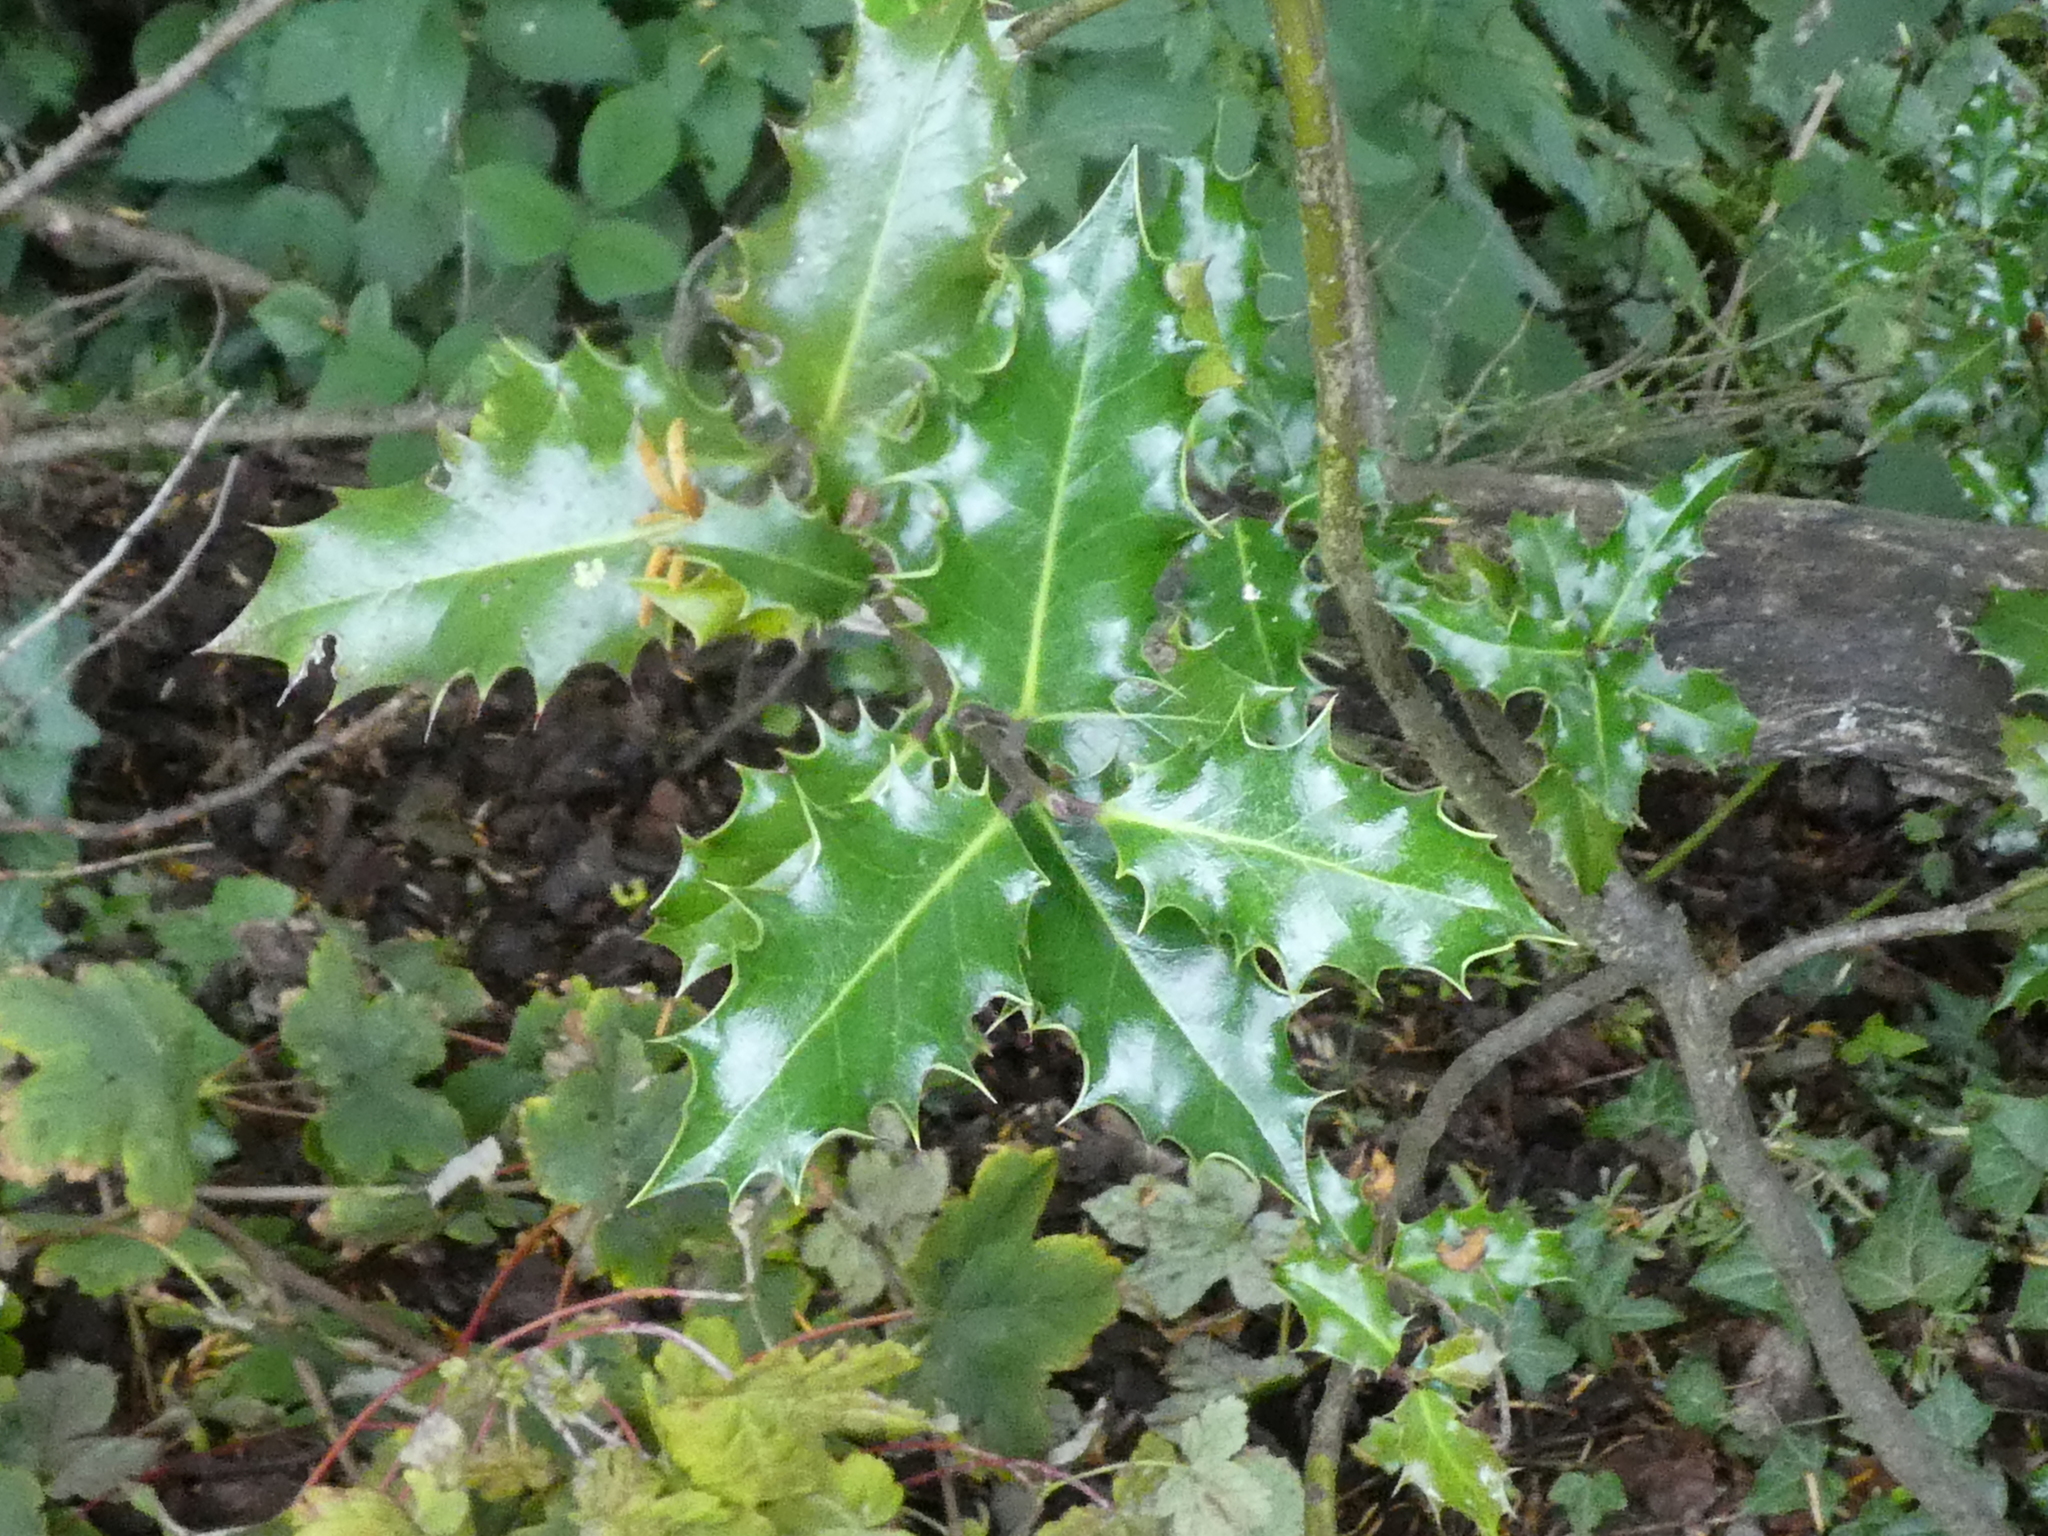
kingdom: Plantae
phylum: Tracheophyta
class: Magnoliopsida
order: Aquifoliales
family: Aquifoliaceae
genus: Ilex
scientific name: Ilex aquifolium
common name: English holly
